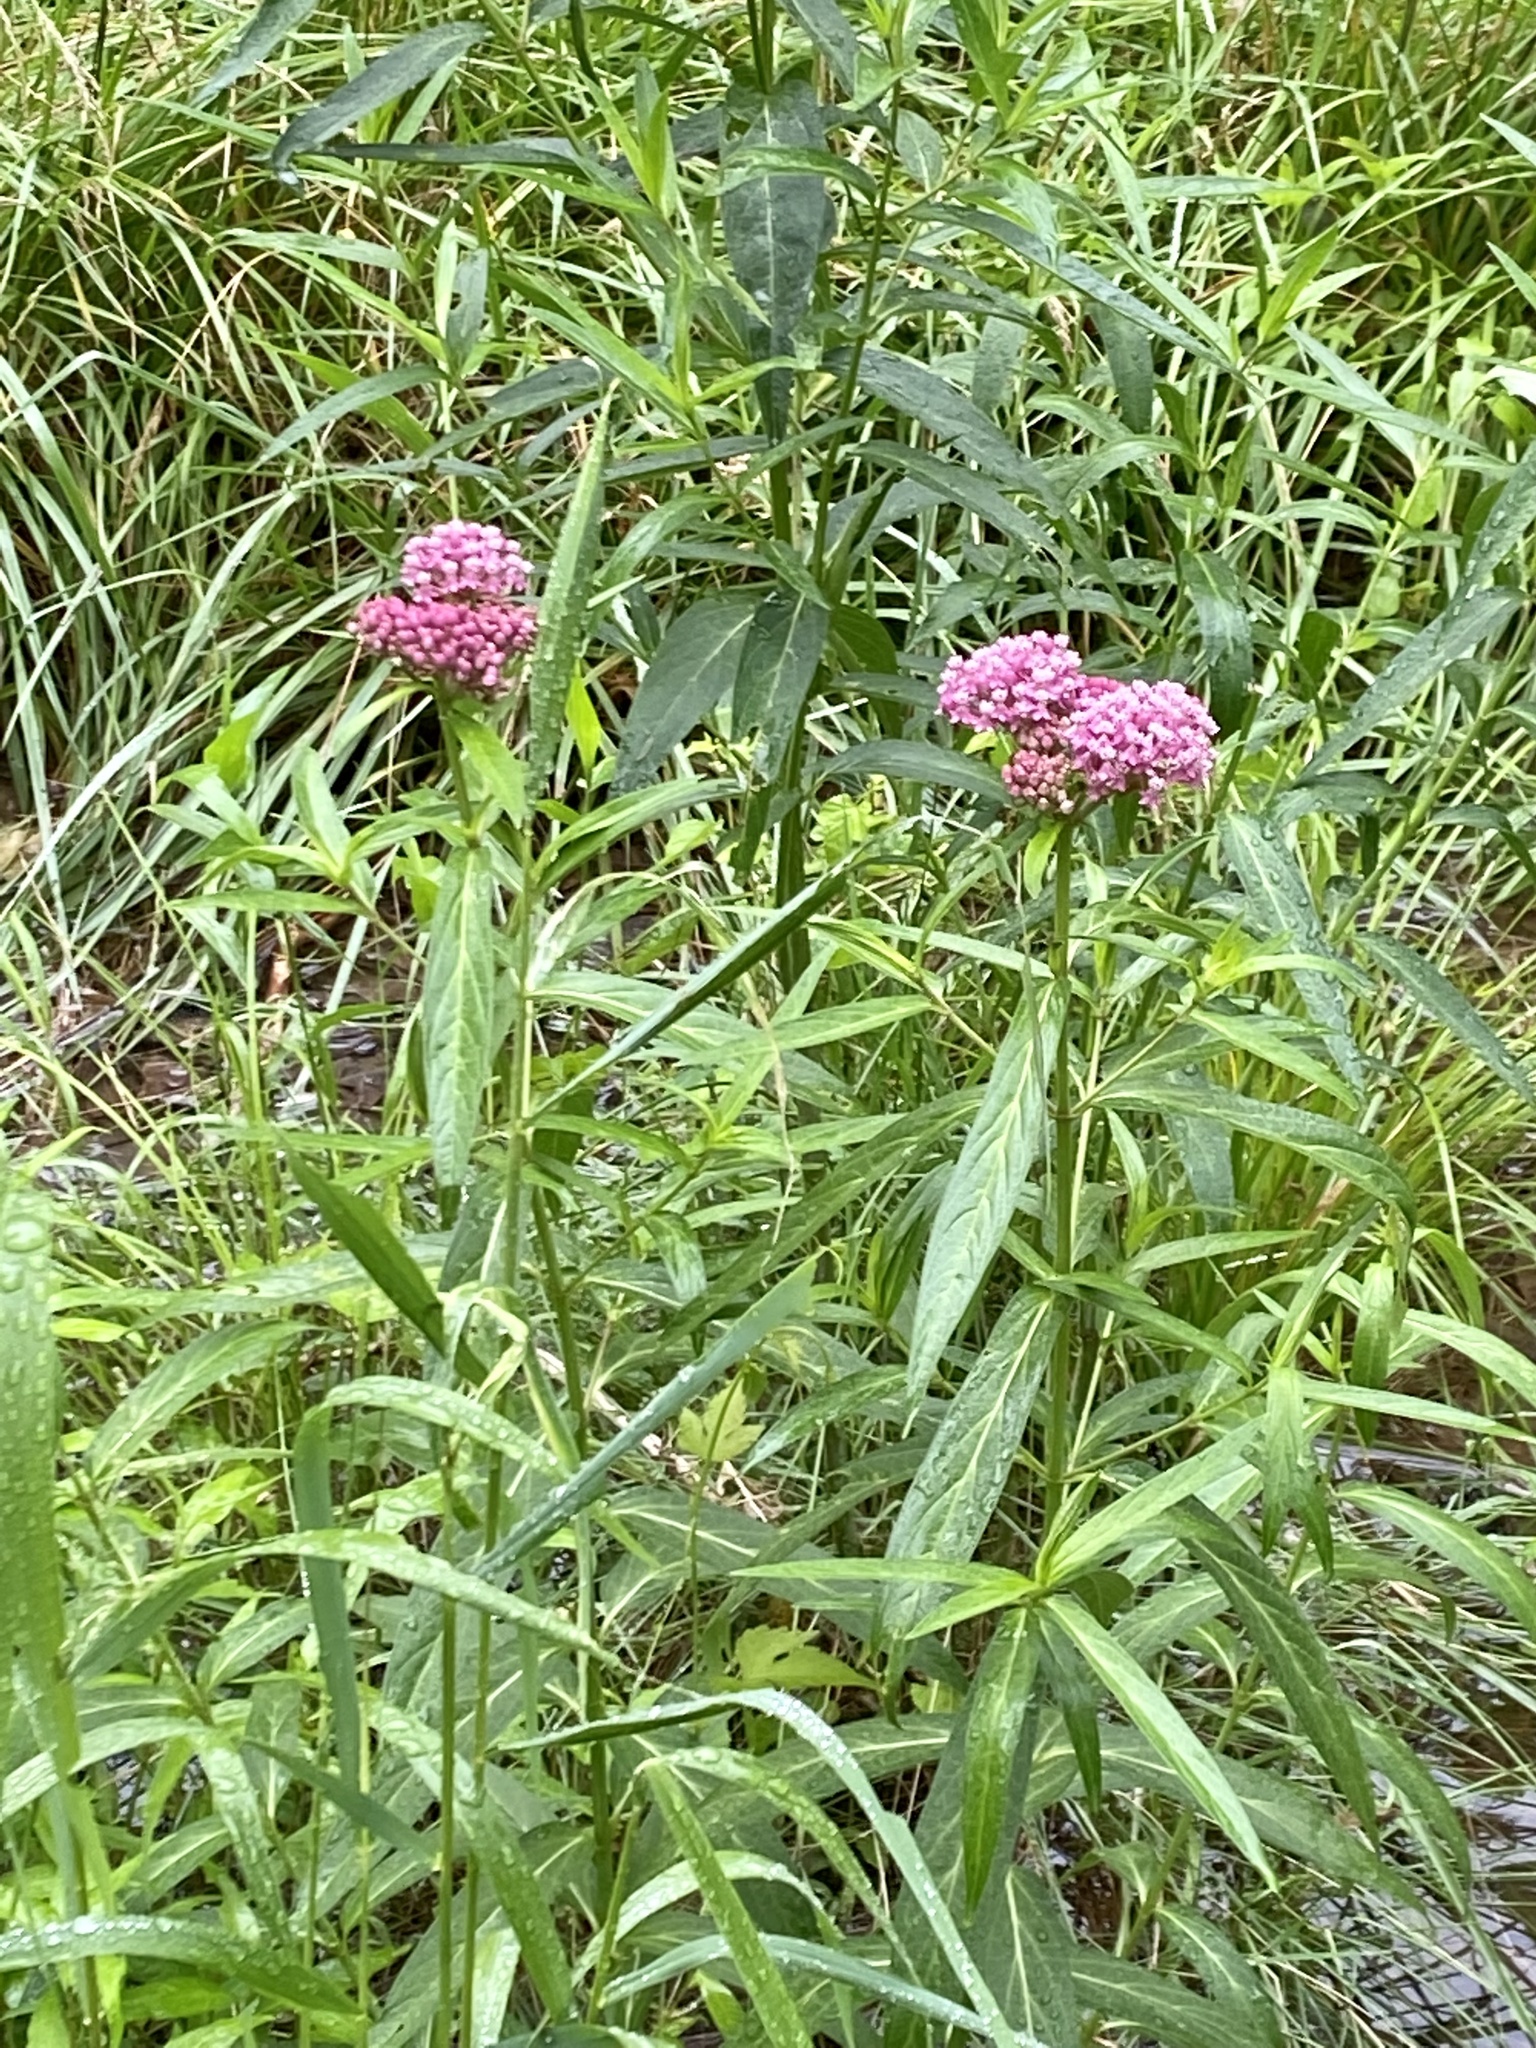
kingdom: Plantae
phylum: Tracheophyta
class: Magnoliopsida
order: Gentianales
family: Apocynaceae
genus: Asclepias
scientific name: Asclepias incarnata
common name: Swamp milkweed
